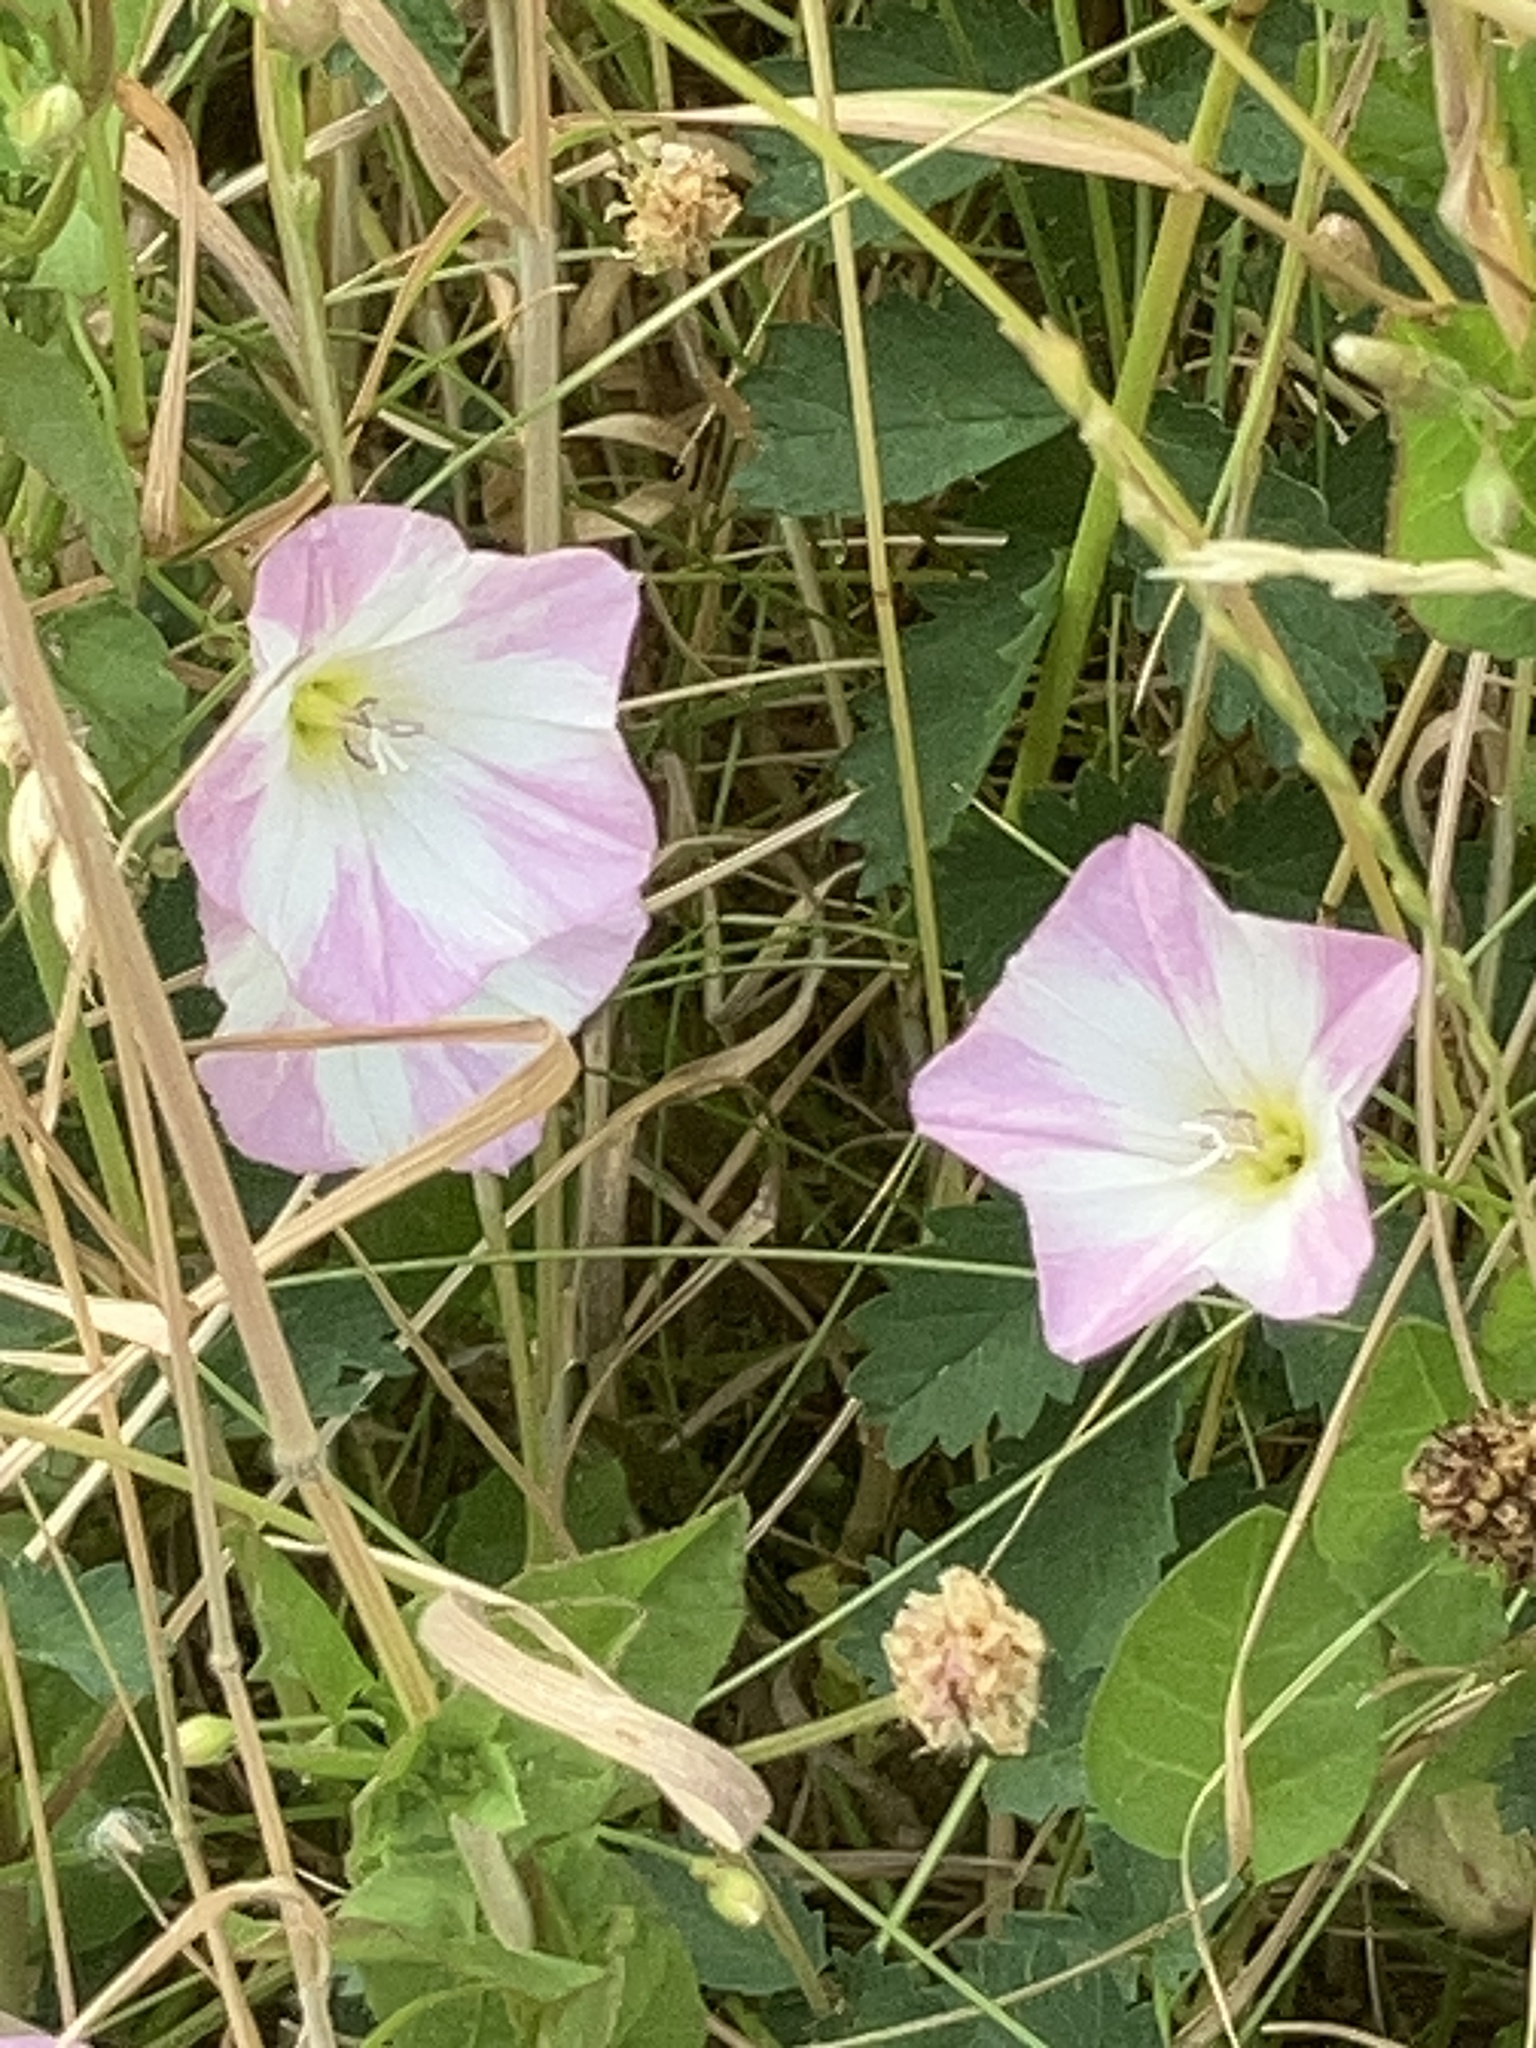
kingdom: Plantae
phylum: Tracheophyta
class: Magnoliopsida
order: Solanales
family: Convolvulaceae
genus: Convolvulus
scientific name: Convolvulus arvensis
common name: Field bindweed
